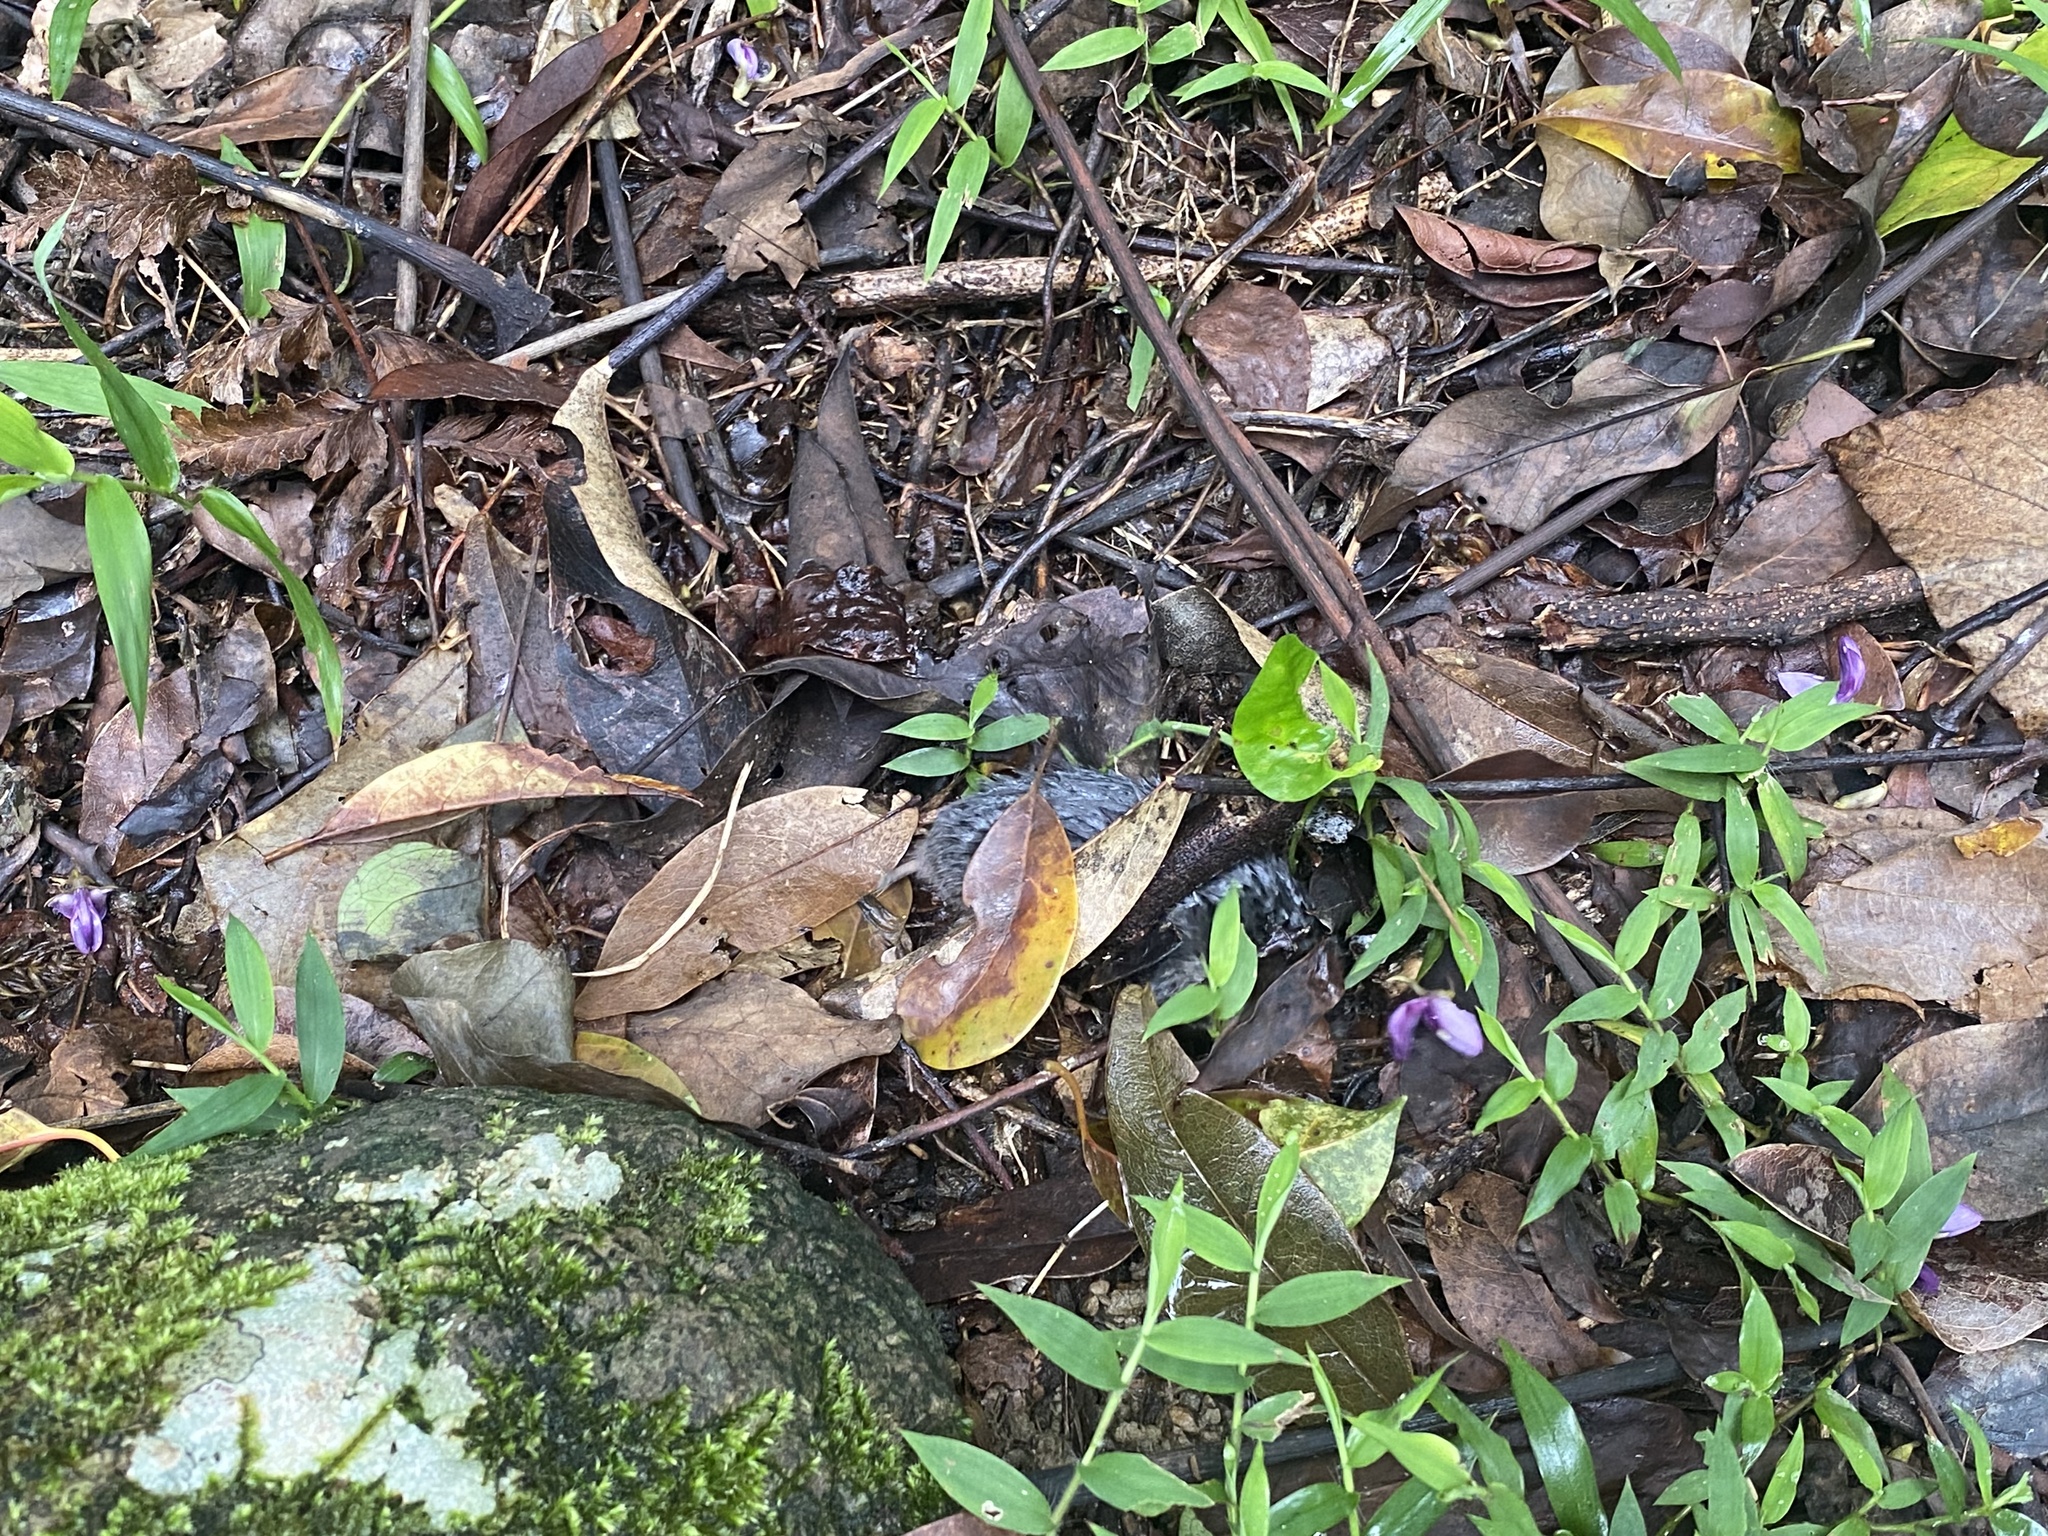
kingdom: Animalia
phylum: Chordata
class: Mammalia
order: Soricomorpha
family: Talpidae
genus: Mogera
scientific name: Mogera insularis
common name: Insular mole
